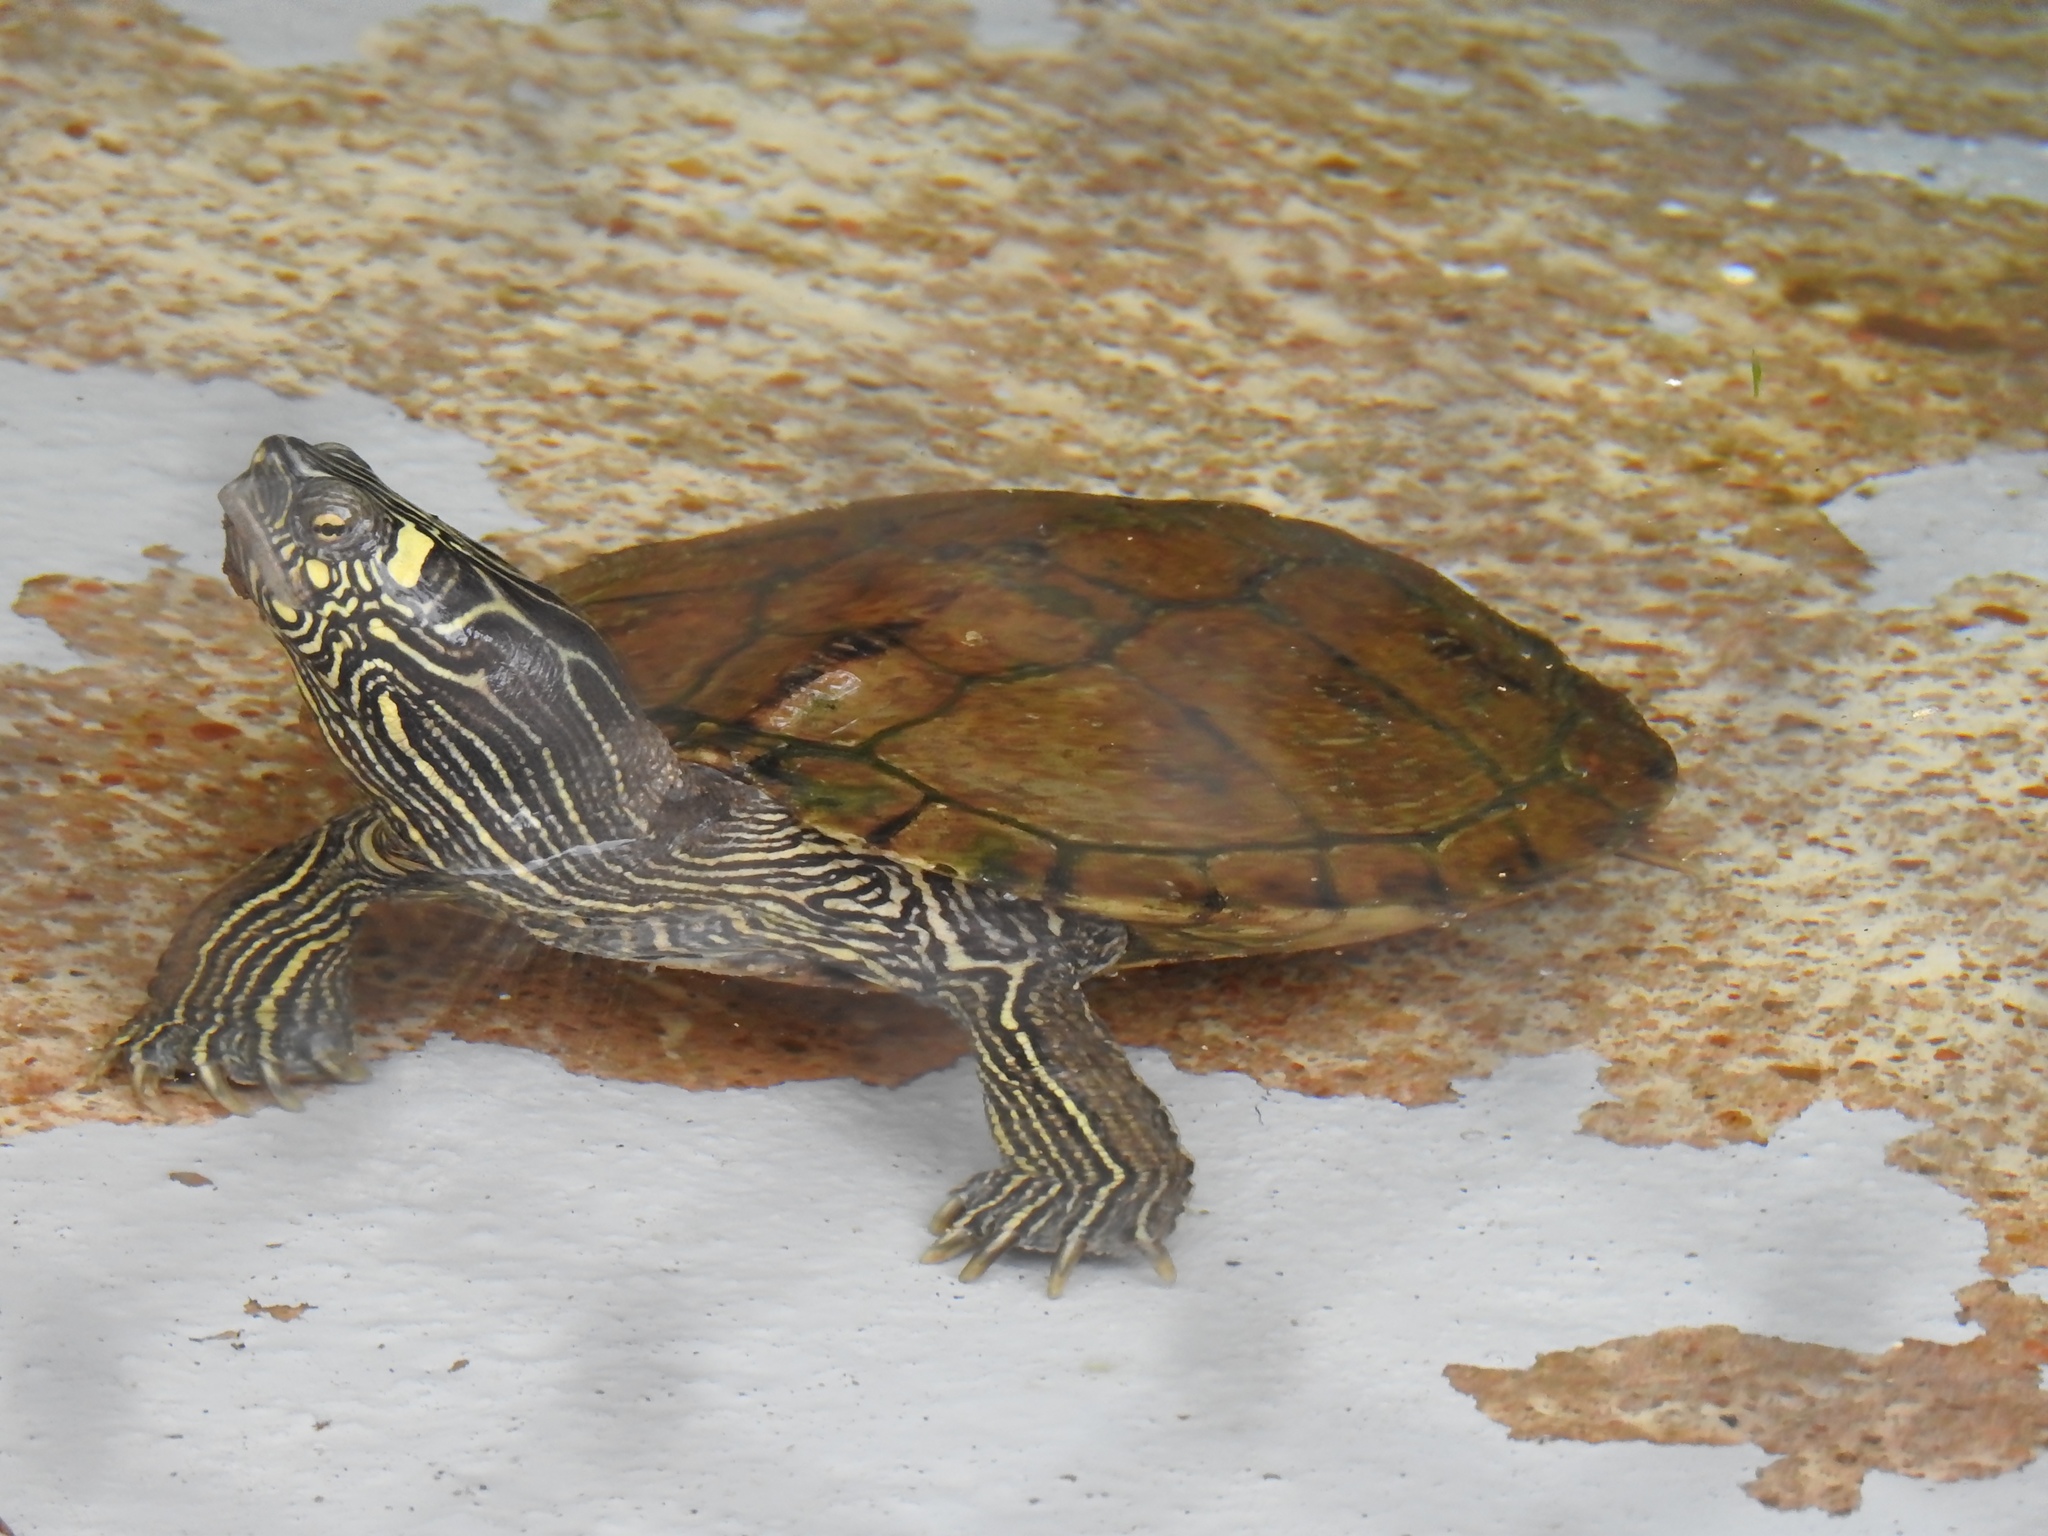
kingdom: Animalia
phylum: Chordata
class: Testudines
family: Emydidae
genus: Graptemys
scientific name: Graptemys ouachitensis
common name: Ouachita map turtle
